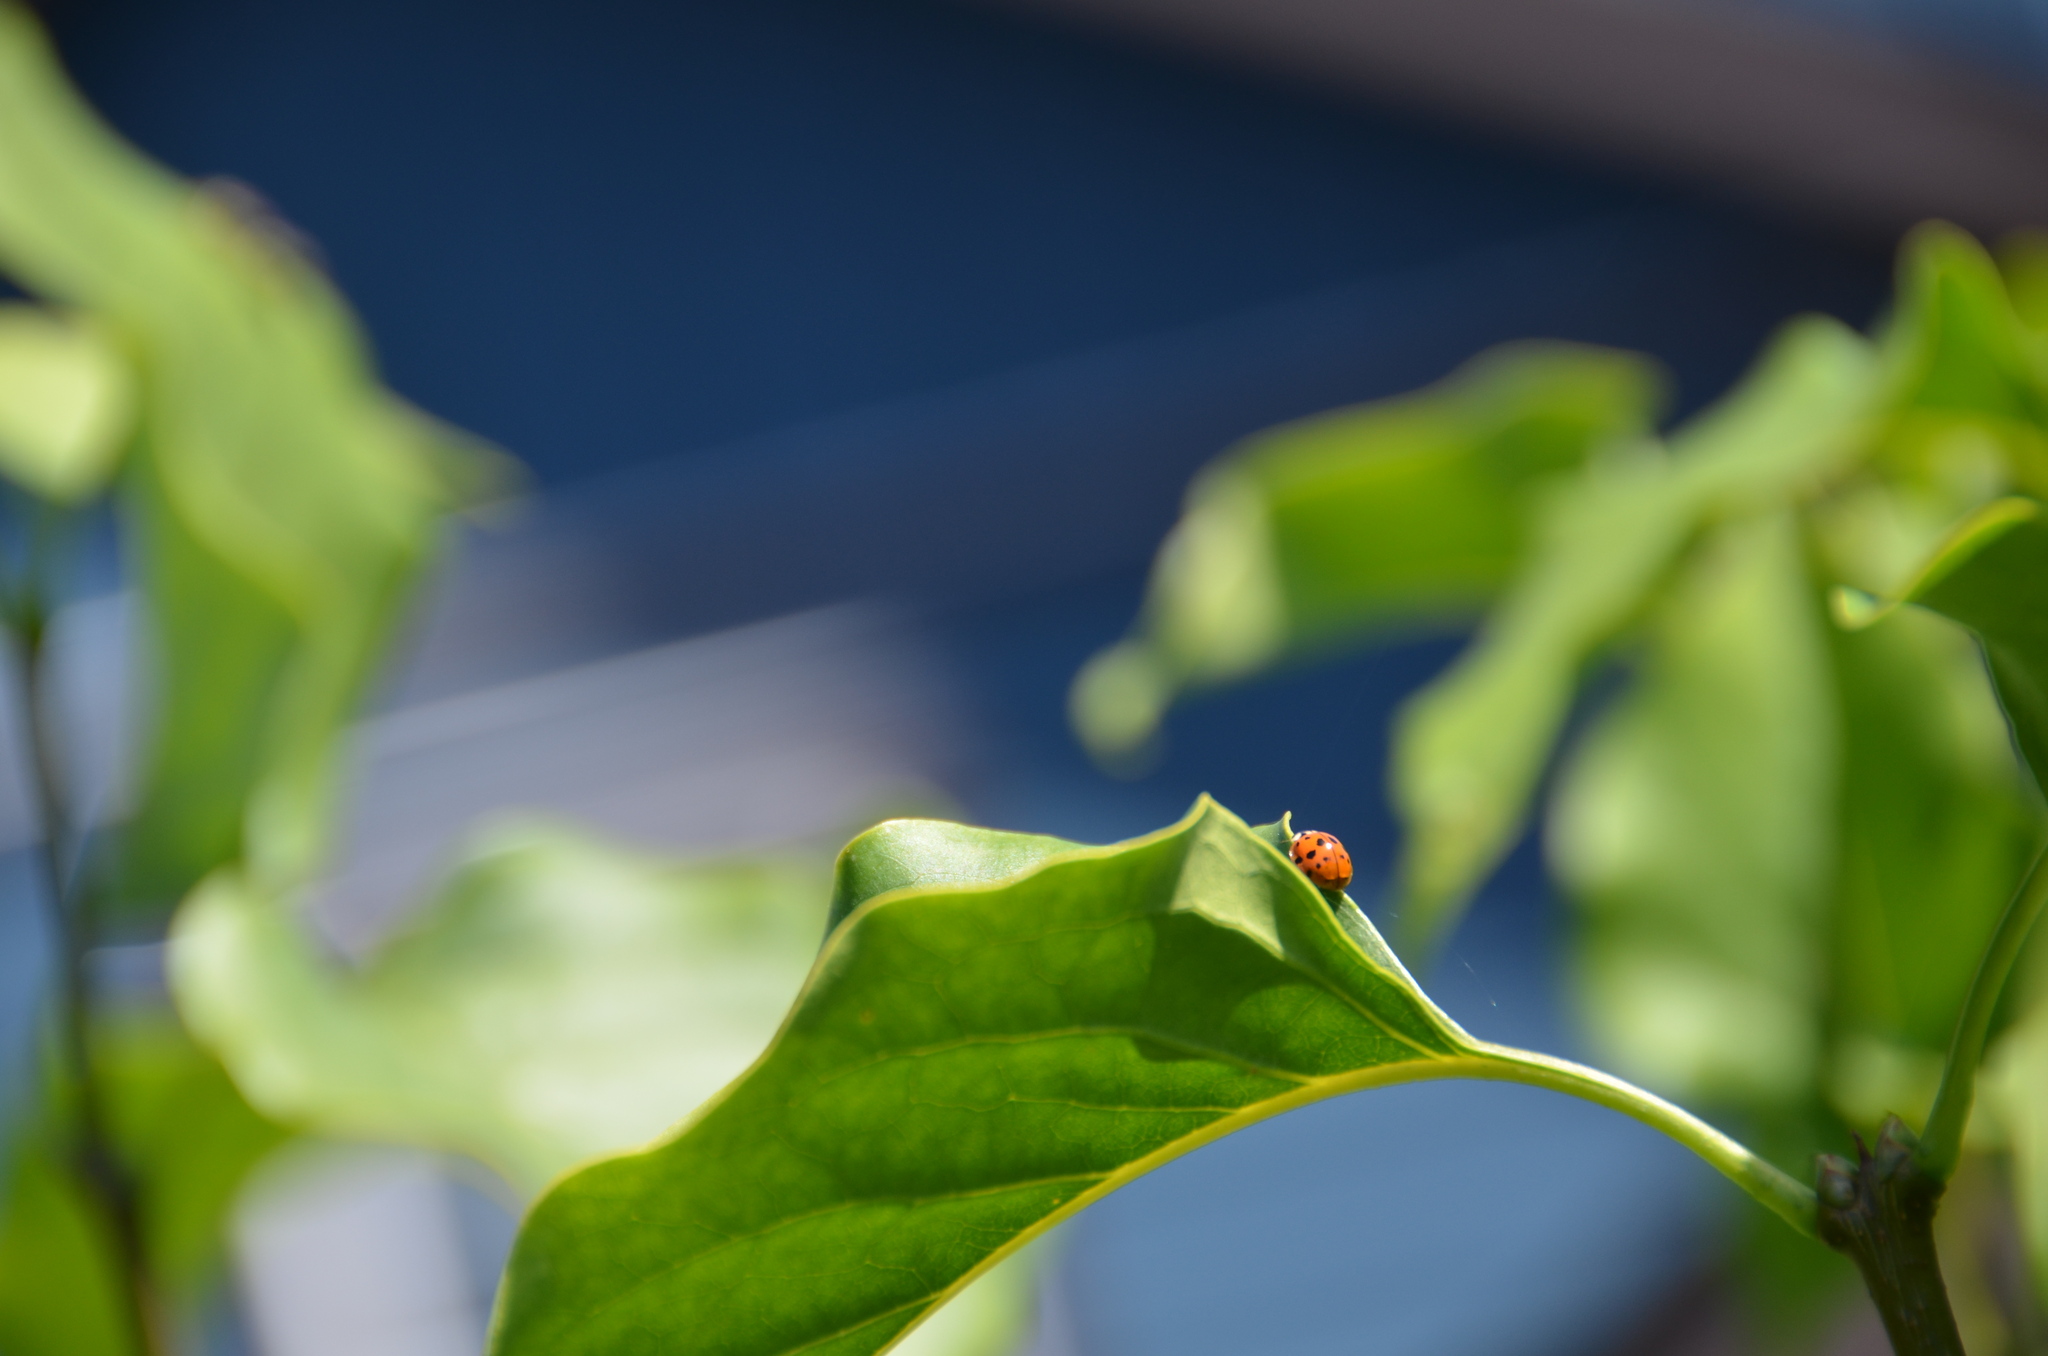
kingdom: Animalia
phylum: Arthropoda
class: Insecta
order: Coleoptera
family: Coccinellidae
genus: Harmonia
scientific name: Harmonia axyridis
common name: Harlequin ladybird
